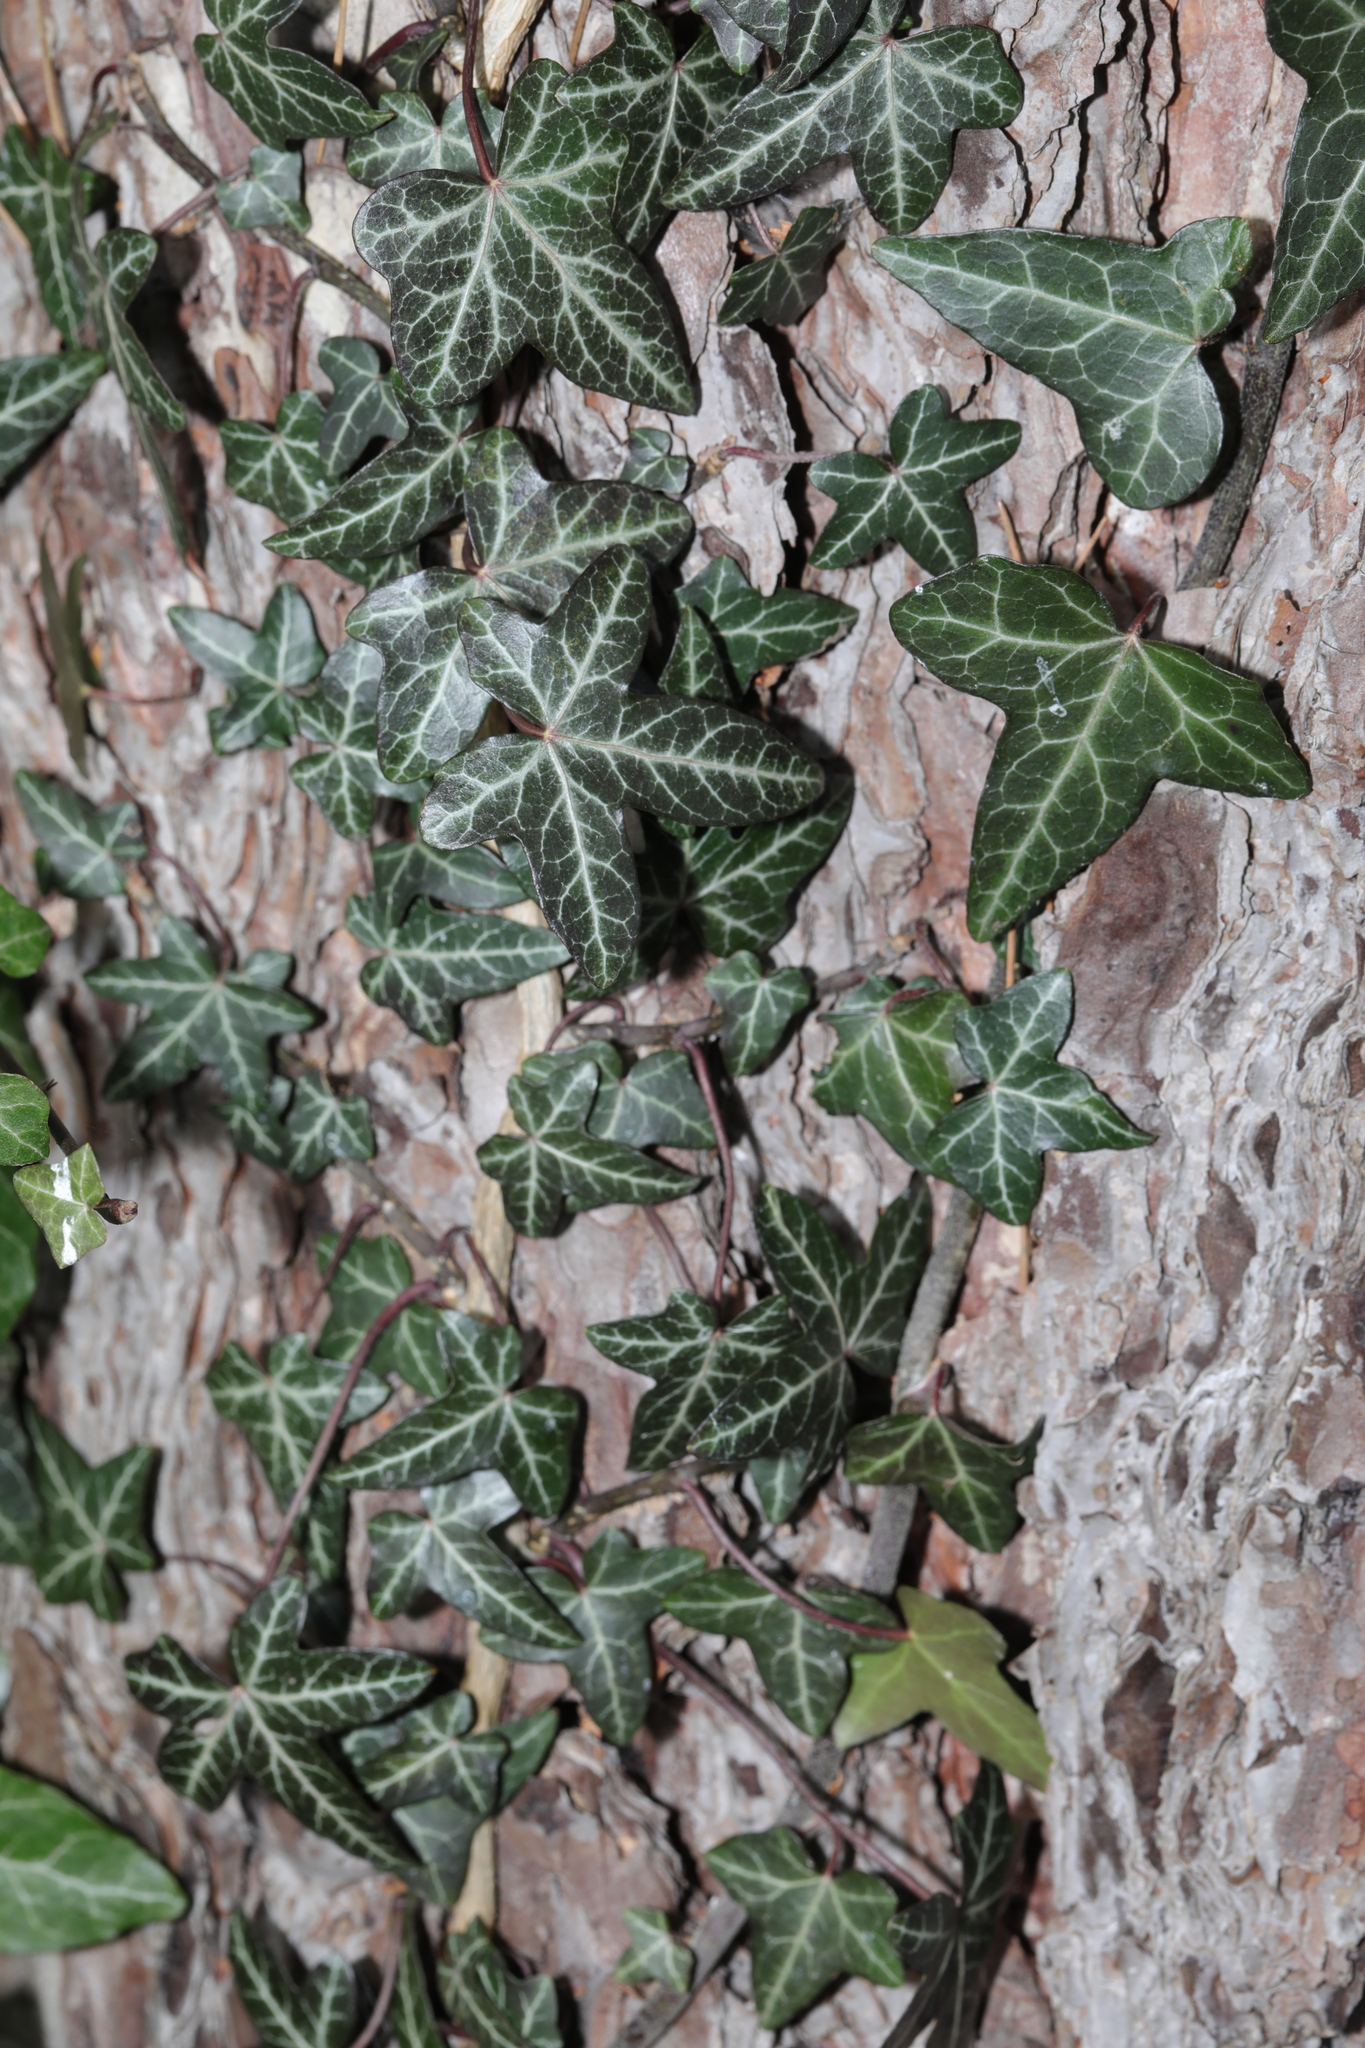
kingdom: Plantae
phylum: Tracheophyta
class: Magnoliopsida
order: Apiales
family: Araliaceae
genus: Hedera
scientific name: Hedera helix
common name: Ivy
